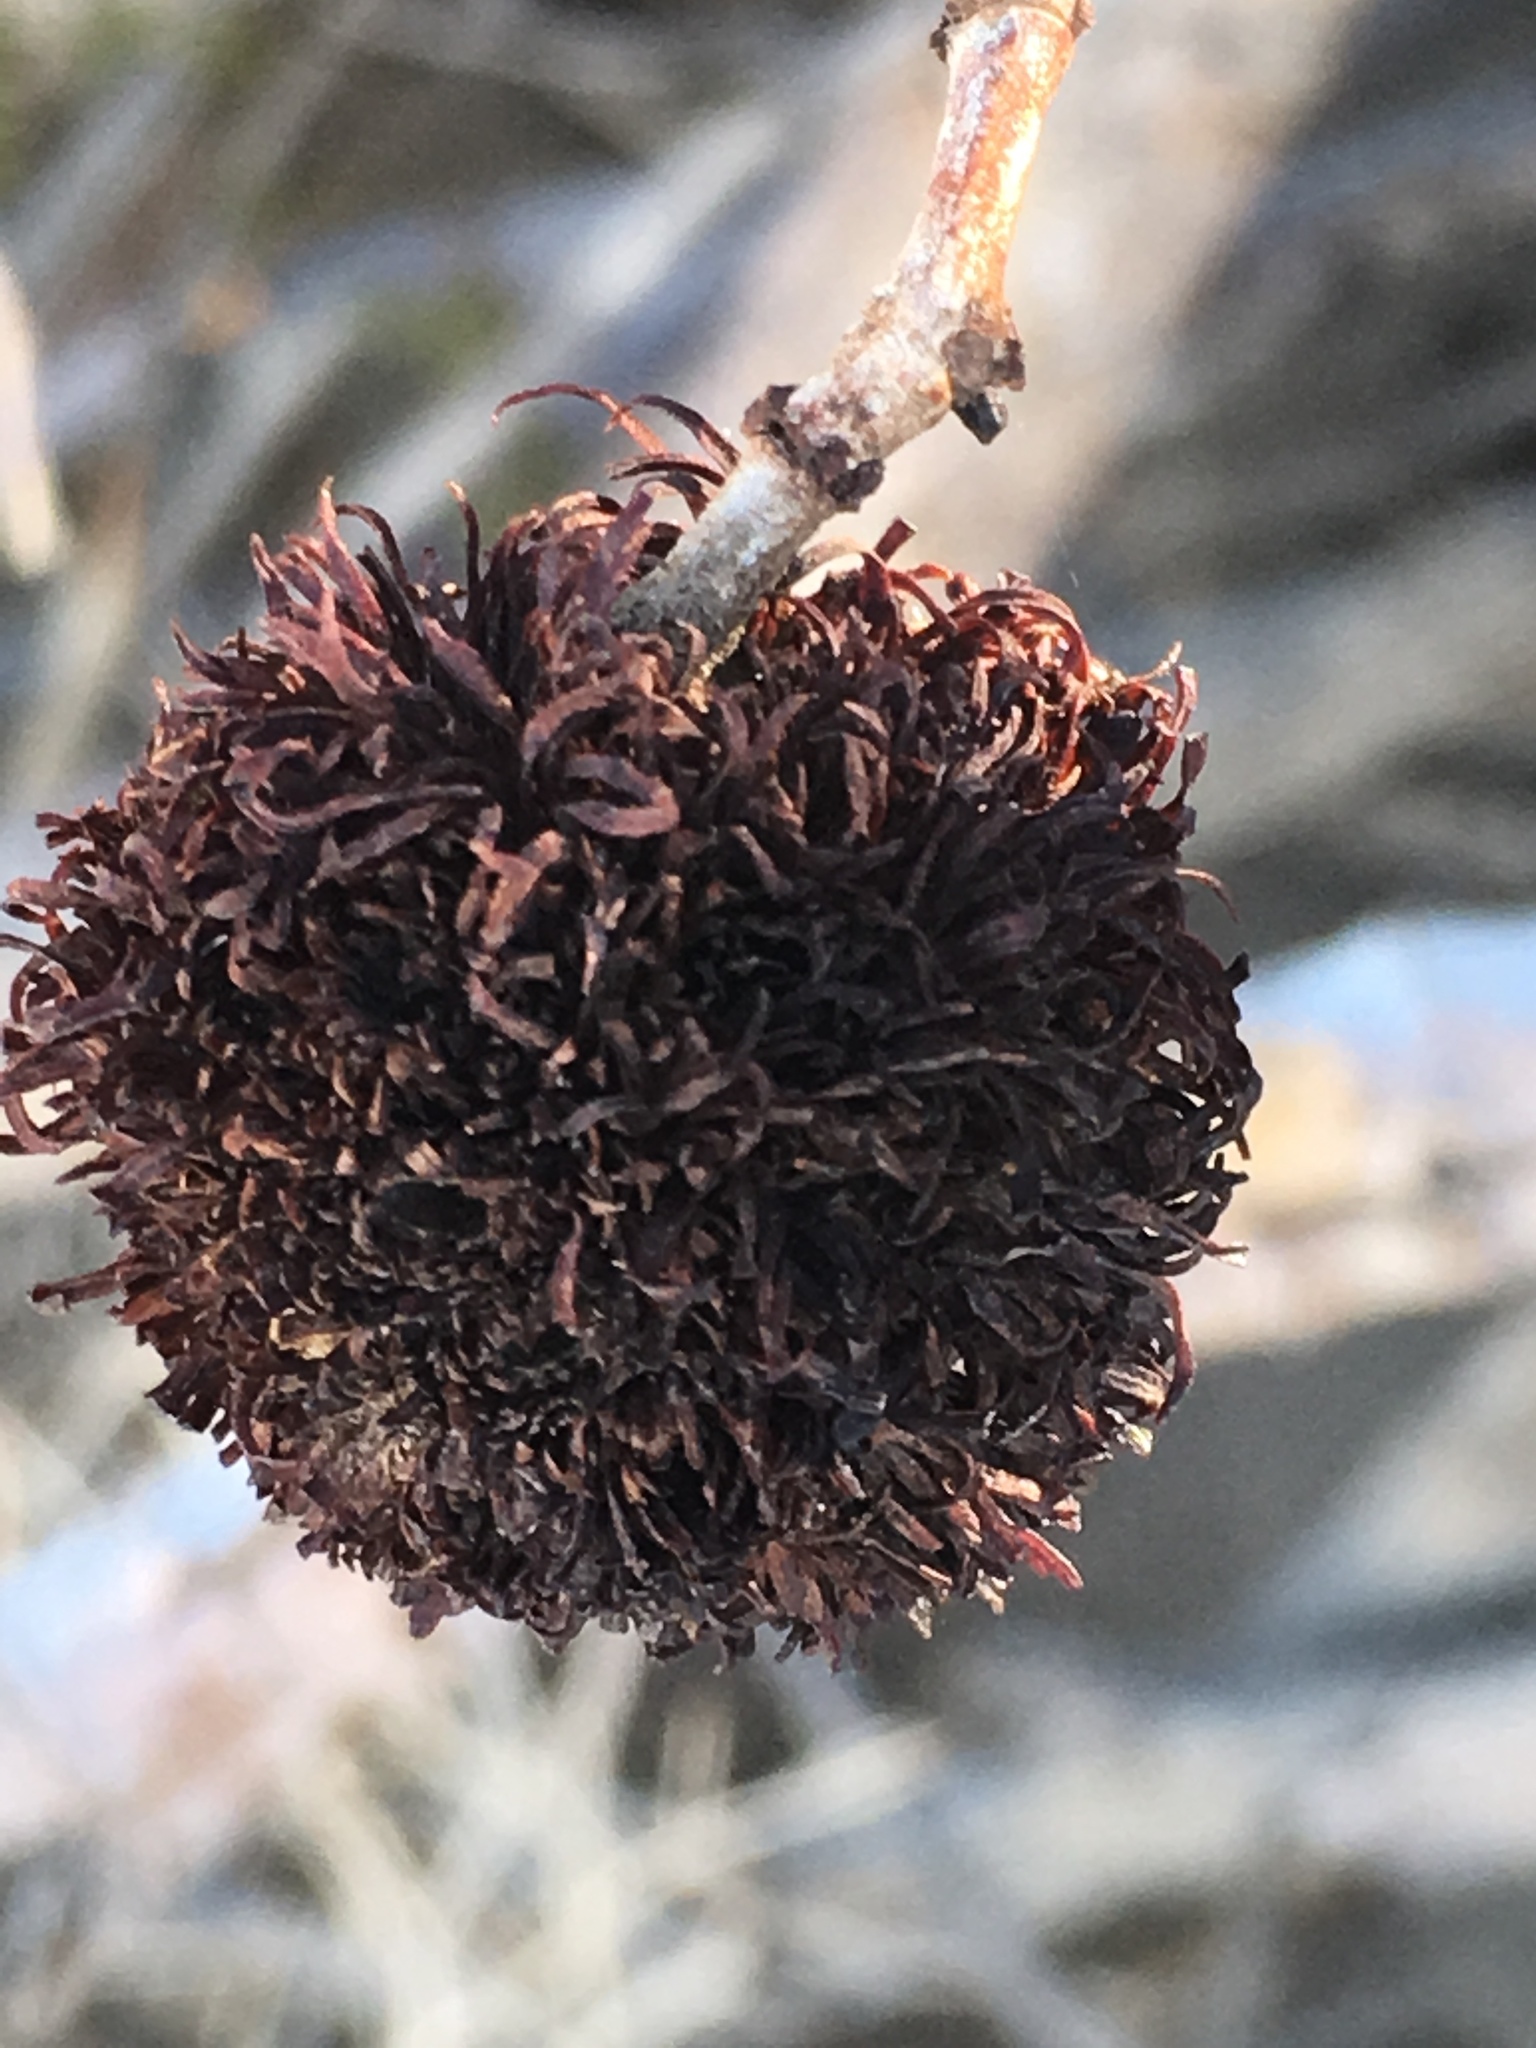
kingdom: Animalia
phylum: Arthropoda
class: Insecta
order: Diptera
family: Cecidomyiidae
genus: Asphondylia
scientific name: Asphondylia auripila
